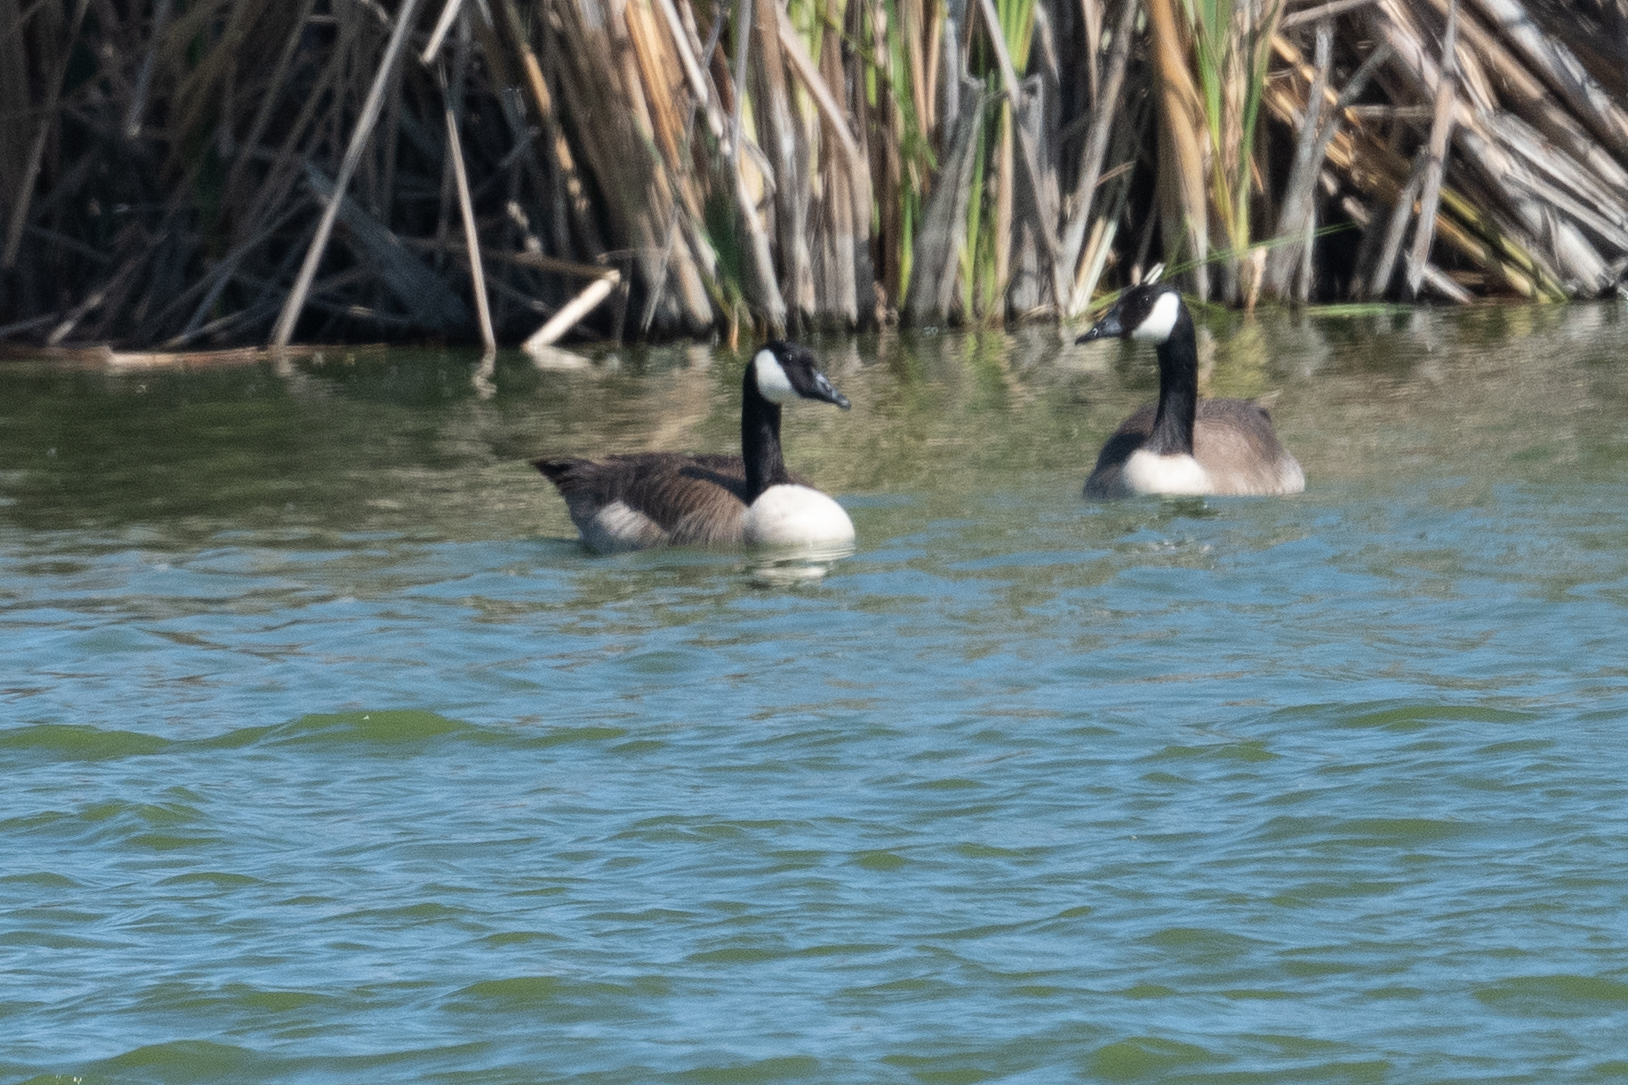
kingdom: Animalia
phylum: Chordata
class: Aves
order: Anseriformes
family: Anatidae
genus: Branta
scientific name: Branta canadensis
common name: Canada goose
